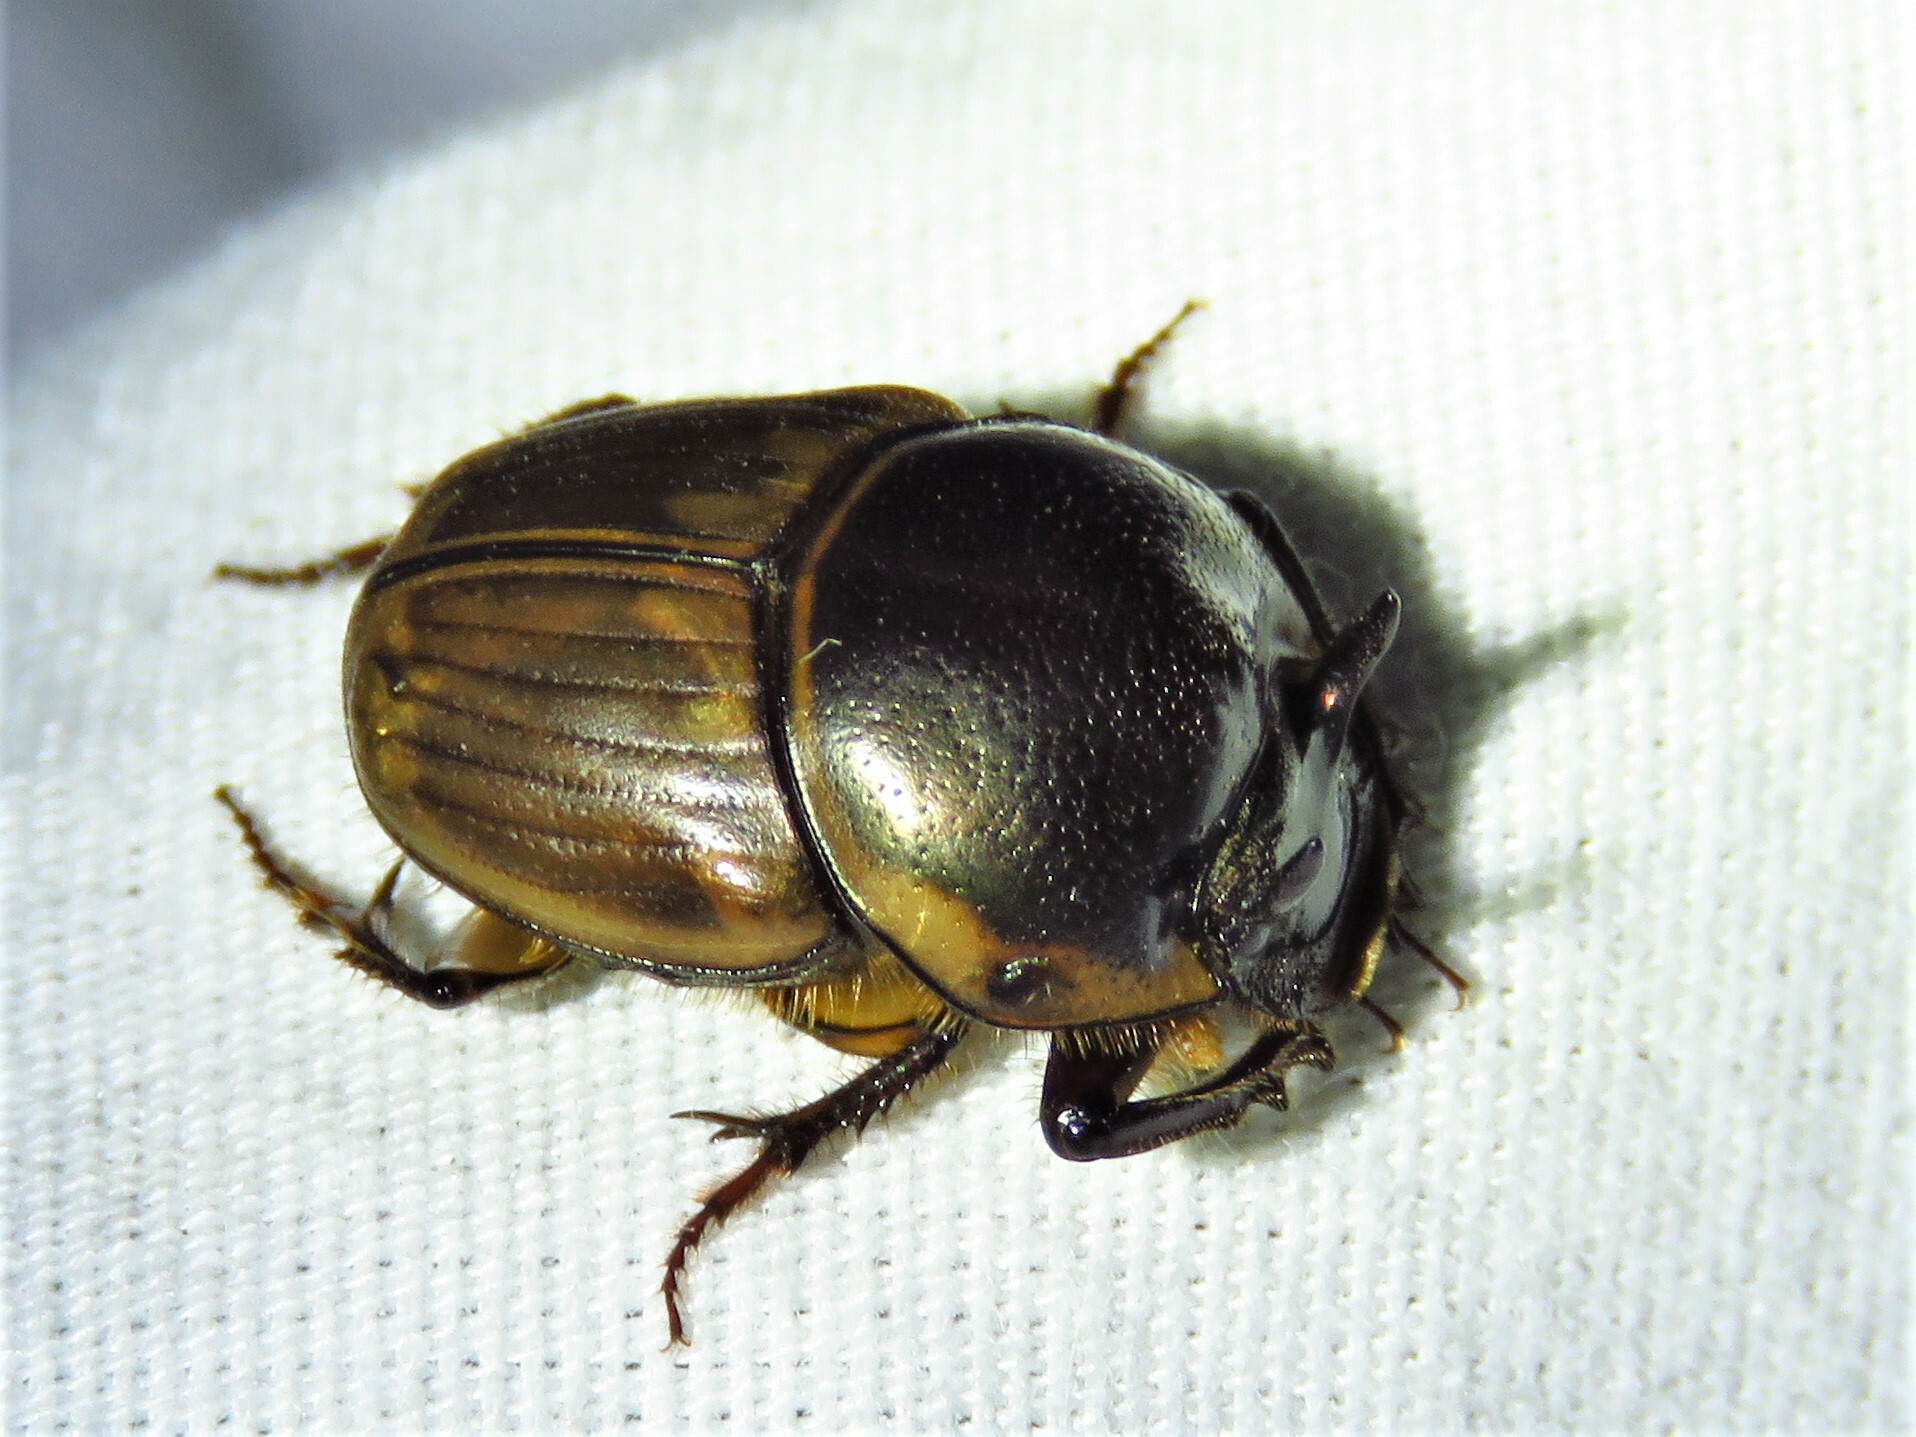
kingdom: Animalia
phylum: Arthropoda
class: Insecta
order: Coleoptera
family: Scarabaeidae
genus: Digitonthophagus
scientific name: Digitonthophagus gazella
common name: Brown dung beetle
